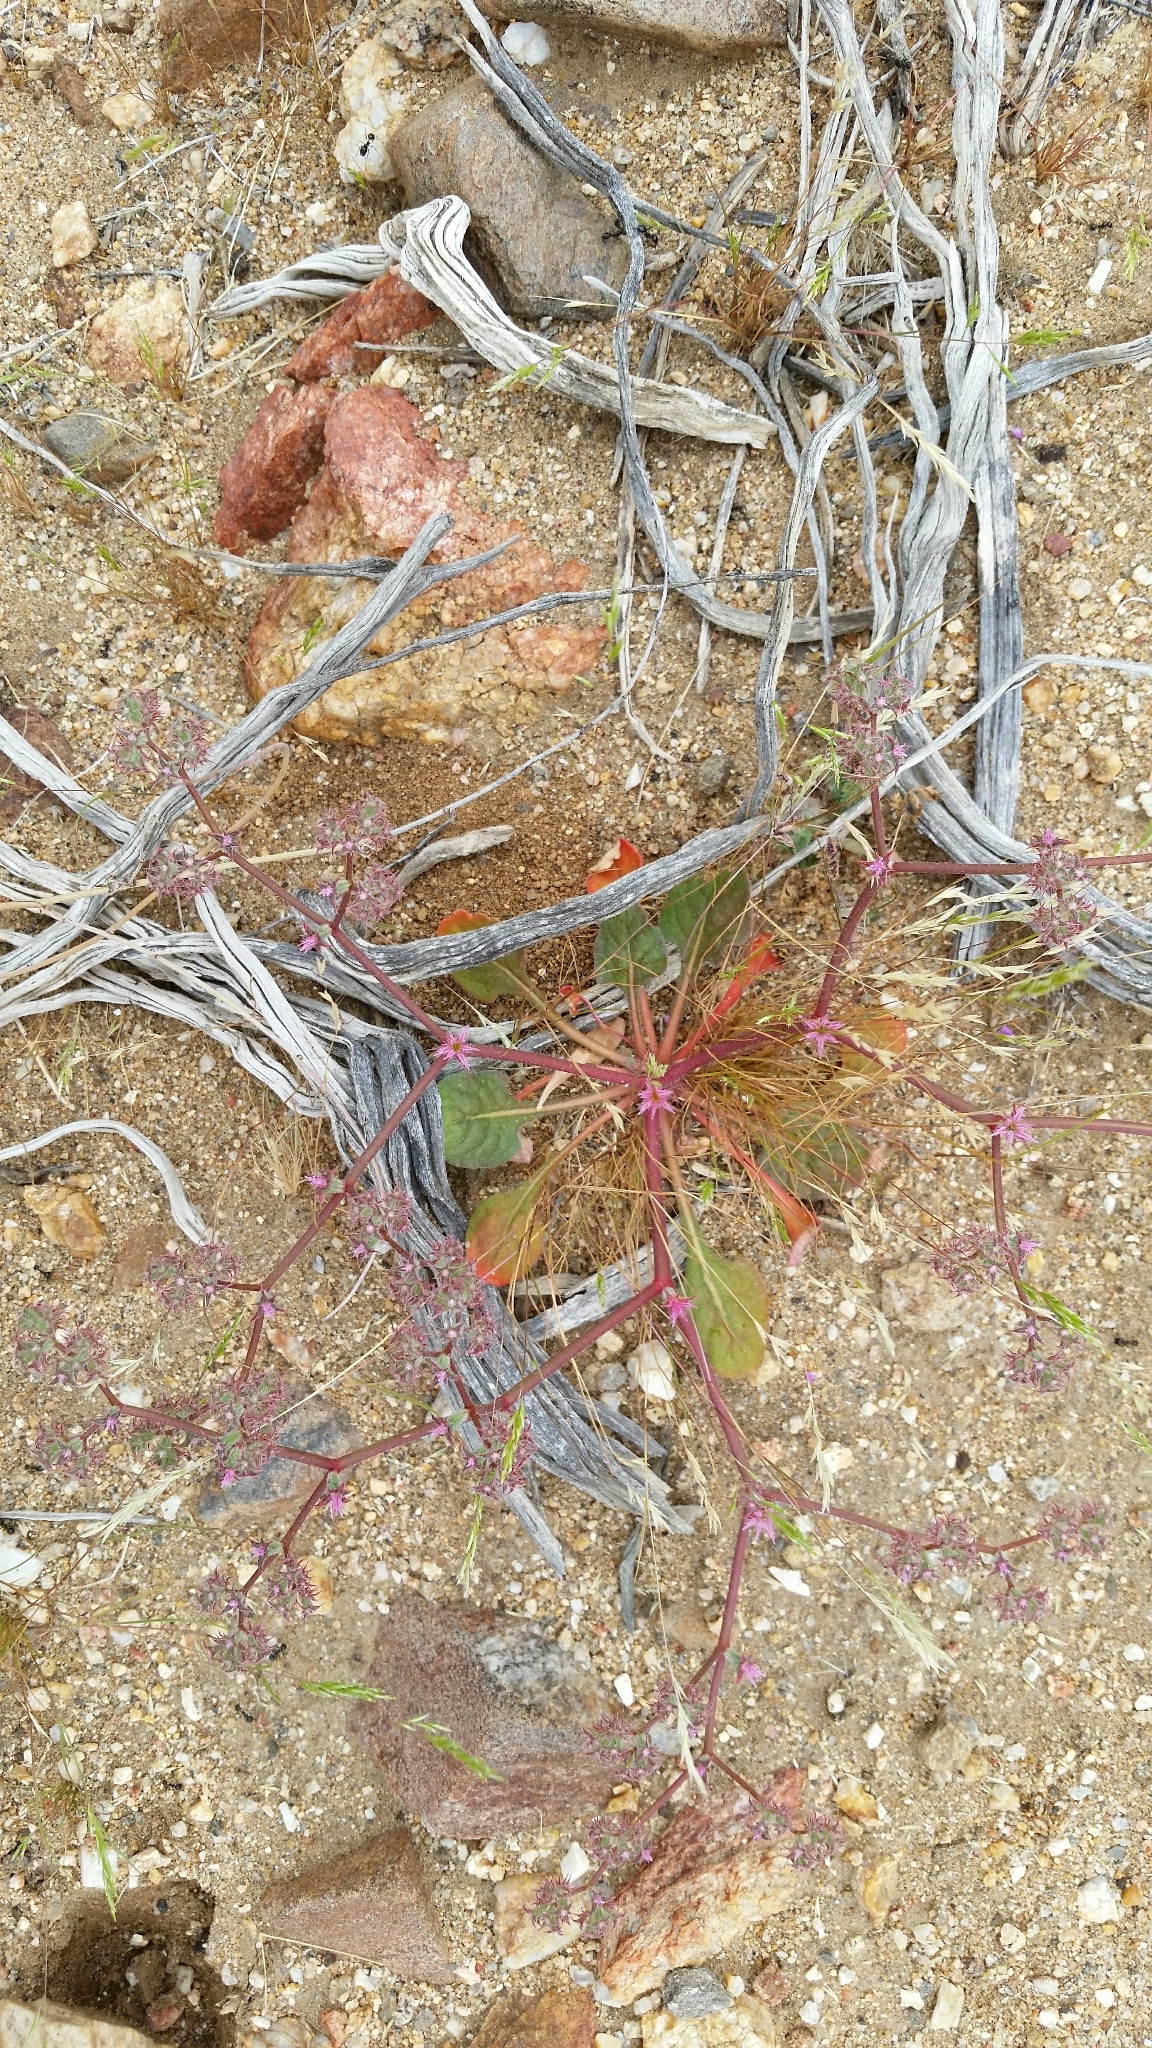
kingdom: Plantae
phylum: Tracheophyta
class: Magnoliopsida
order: Caryophyllales
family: Polygonaceae
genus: Chorizanthe
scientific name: Chorizanthe fimbriata
